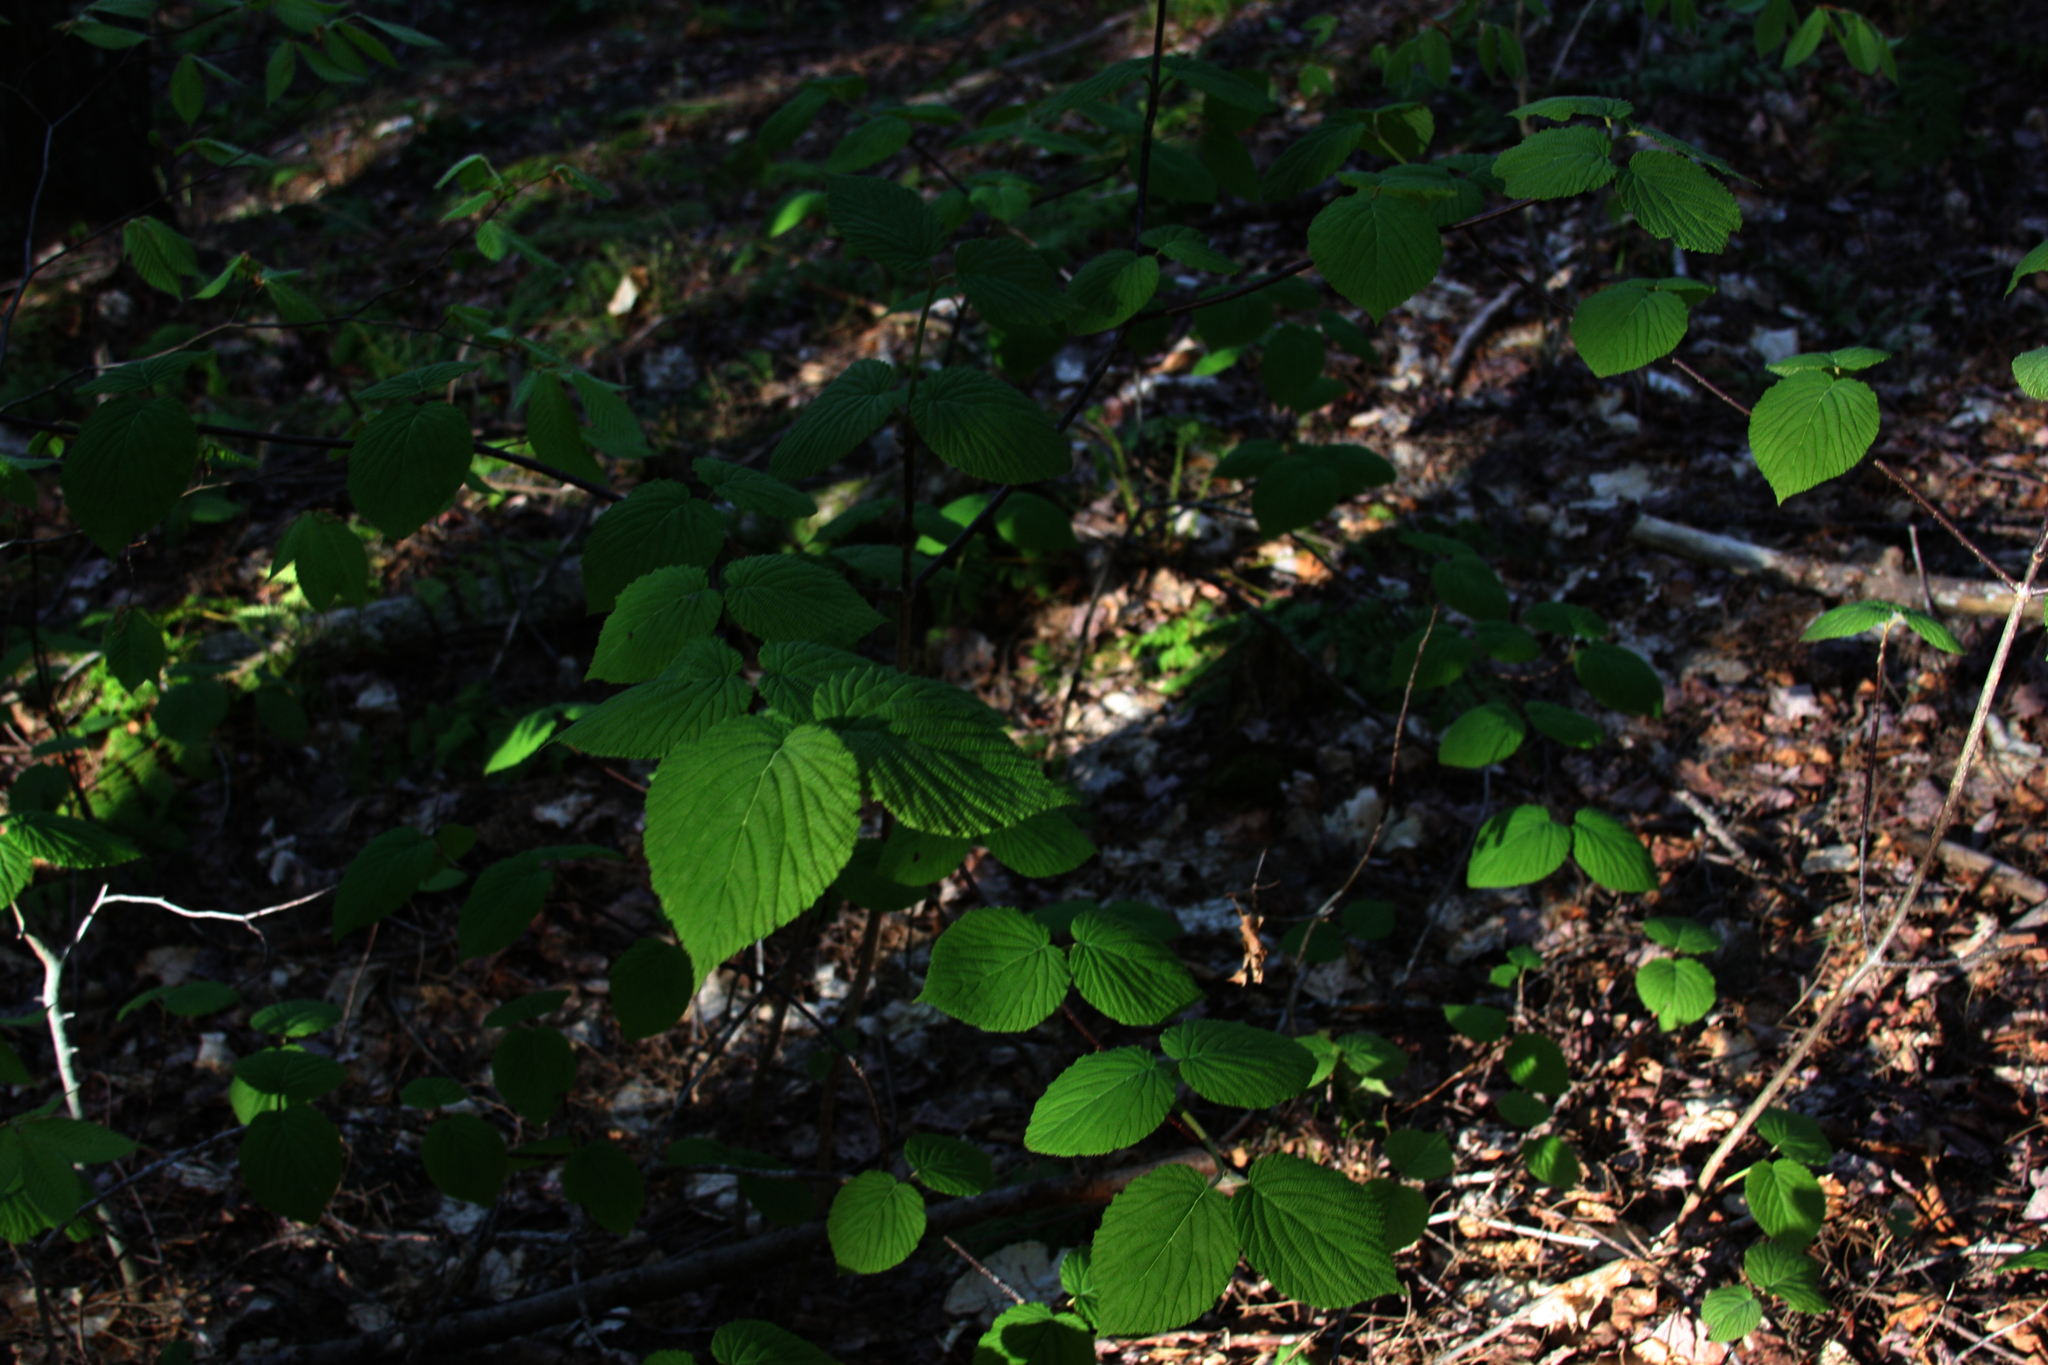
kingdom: Plantae
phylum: Tracheophyta
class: Magnoliopsida
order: Dipsacales
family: Viburnaceae
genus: Viburnum
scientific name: Viburnum lantanoides
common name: Hobblebush
